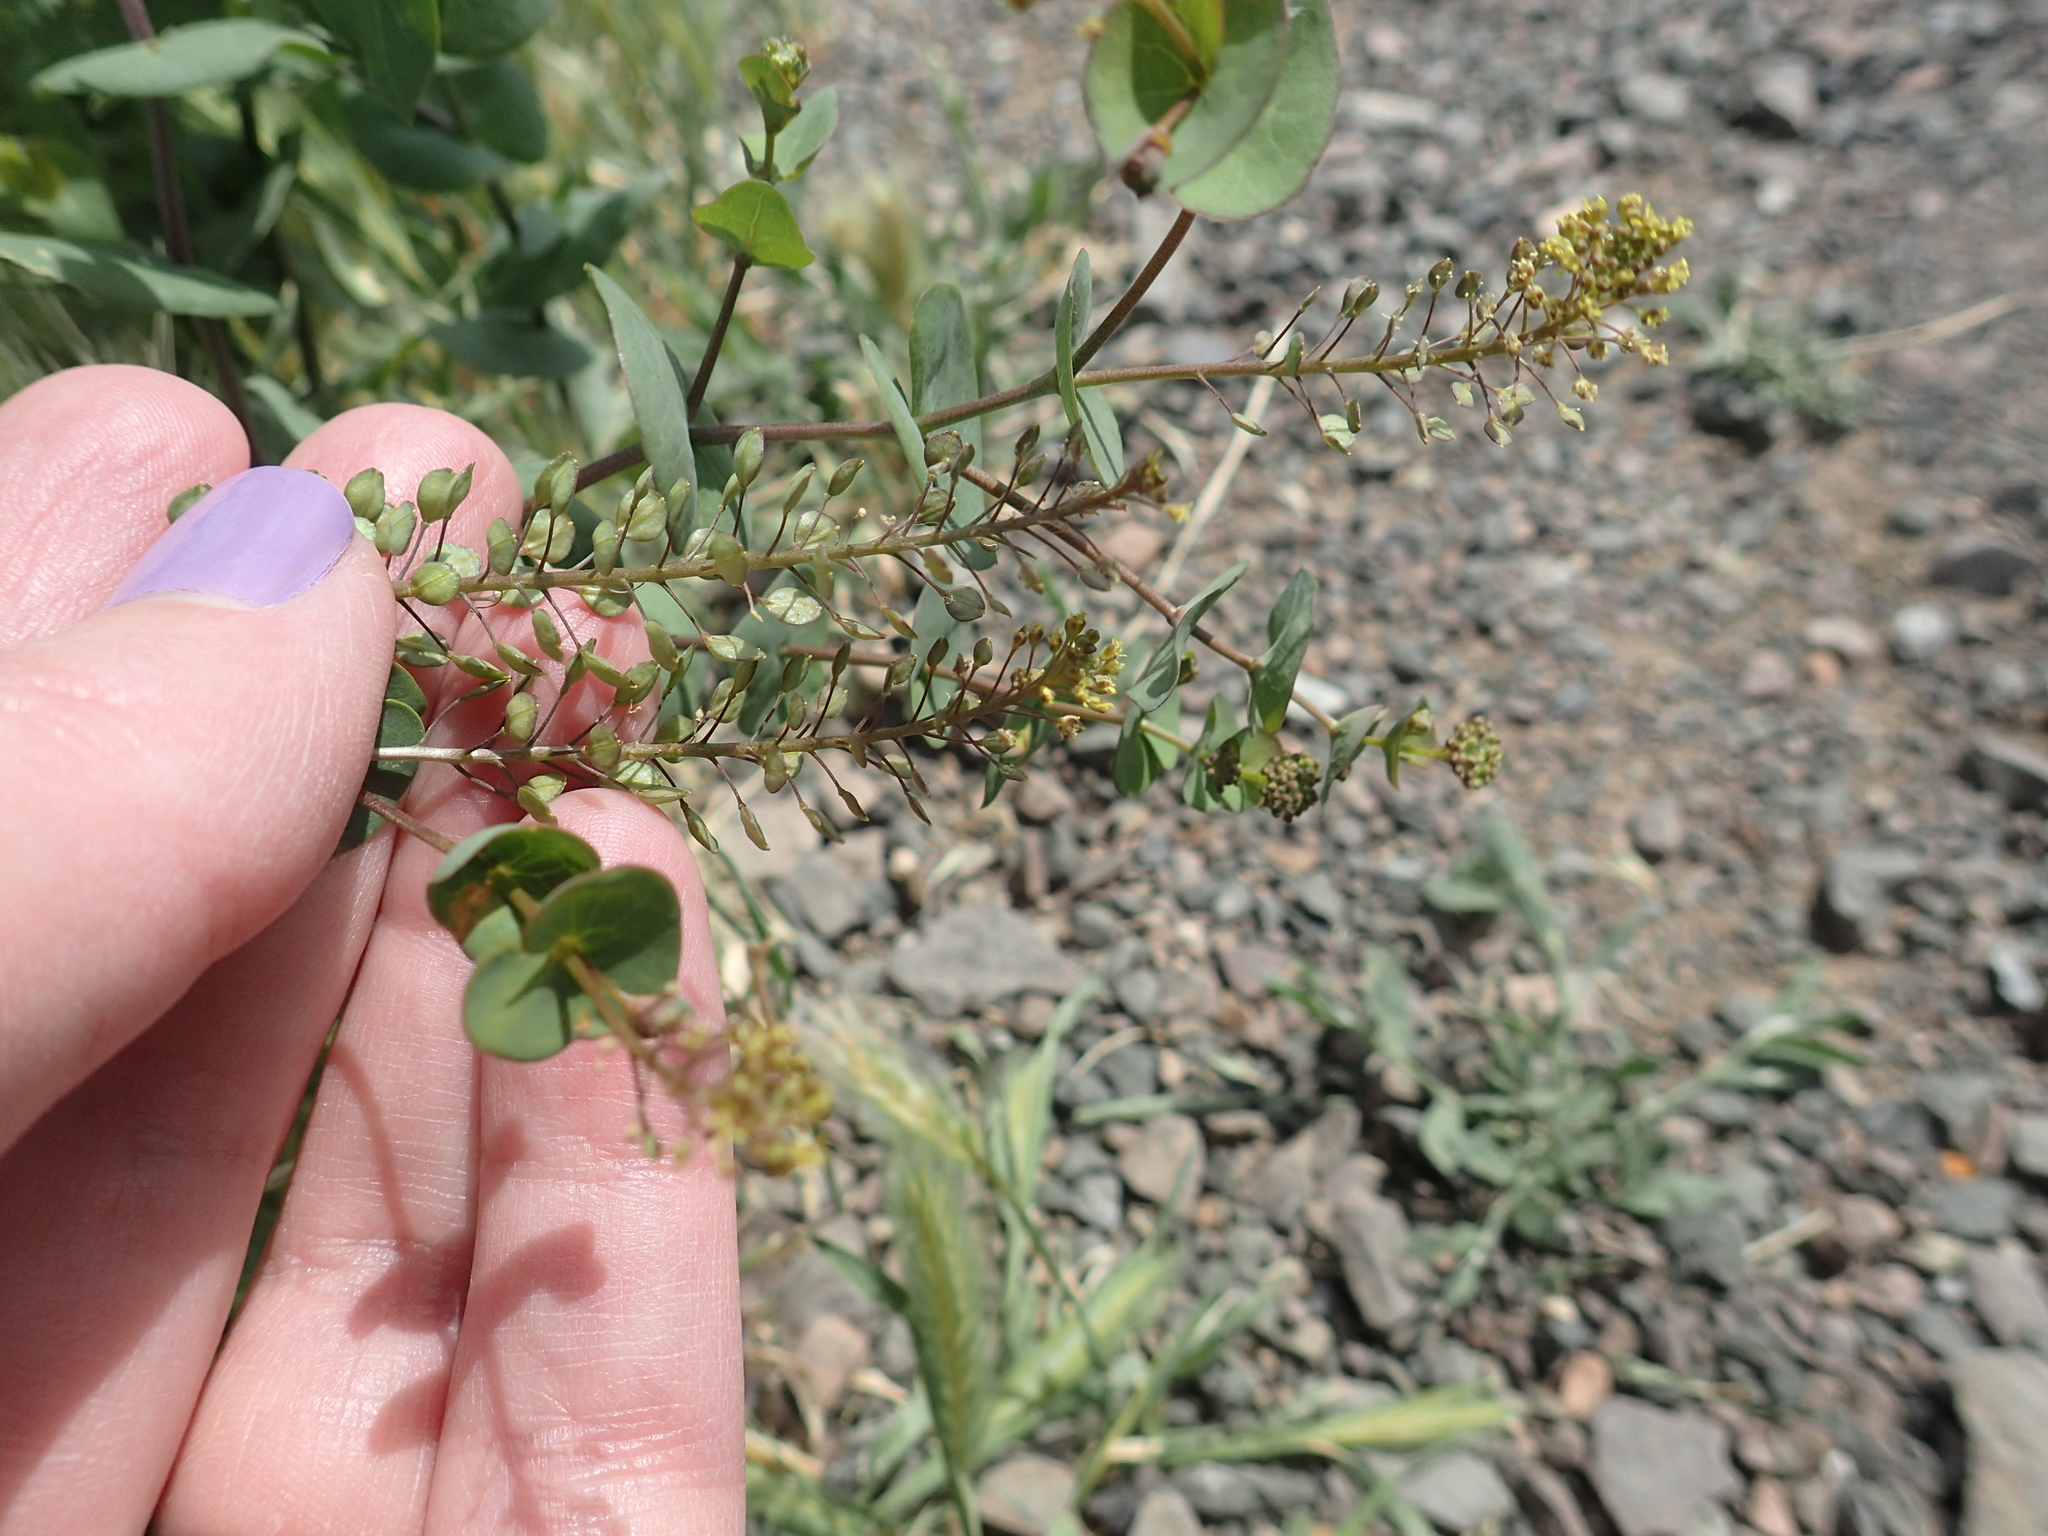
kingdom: Plantae
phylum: Tracheophyta
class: Magnoliopsida
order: Brassicales
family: Brassicaceae
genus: Lepidium
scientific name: Lepidium perfoliatum
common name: Perfoliate pepperwort
